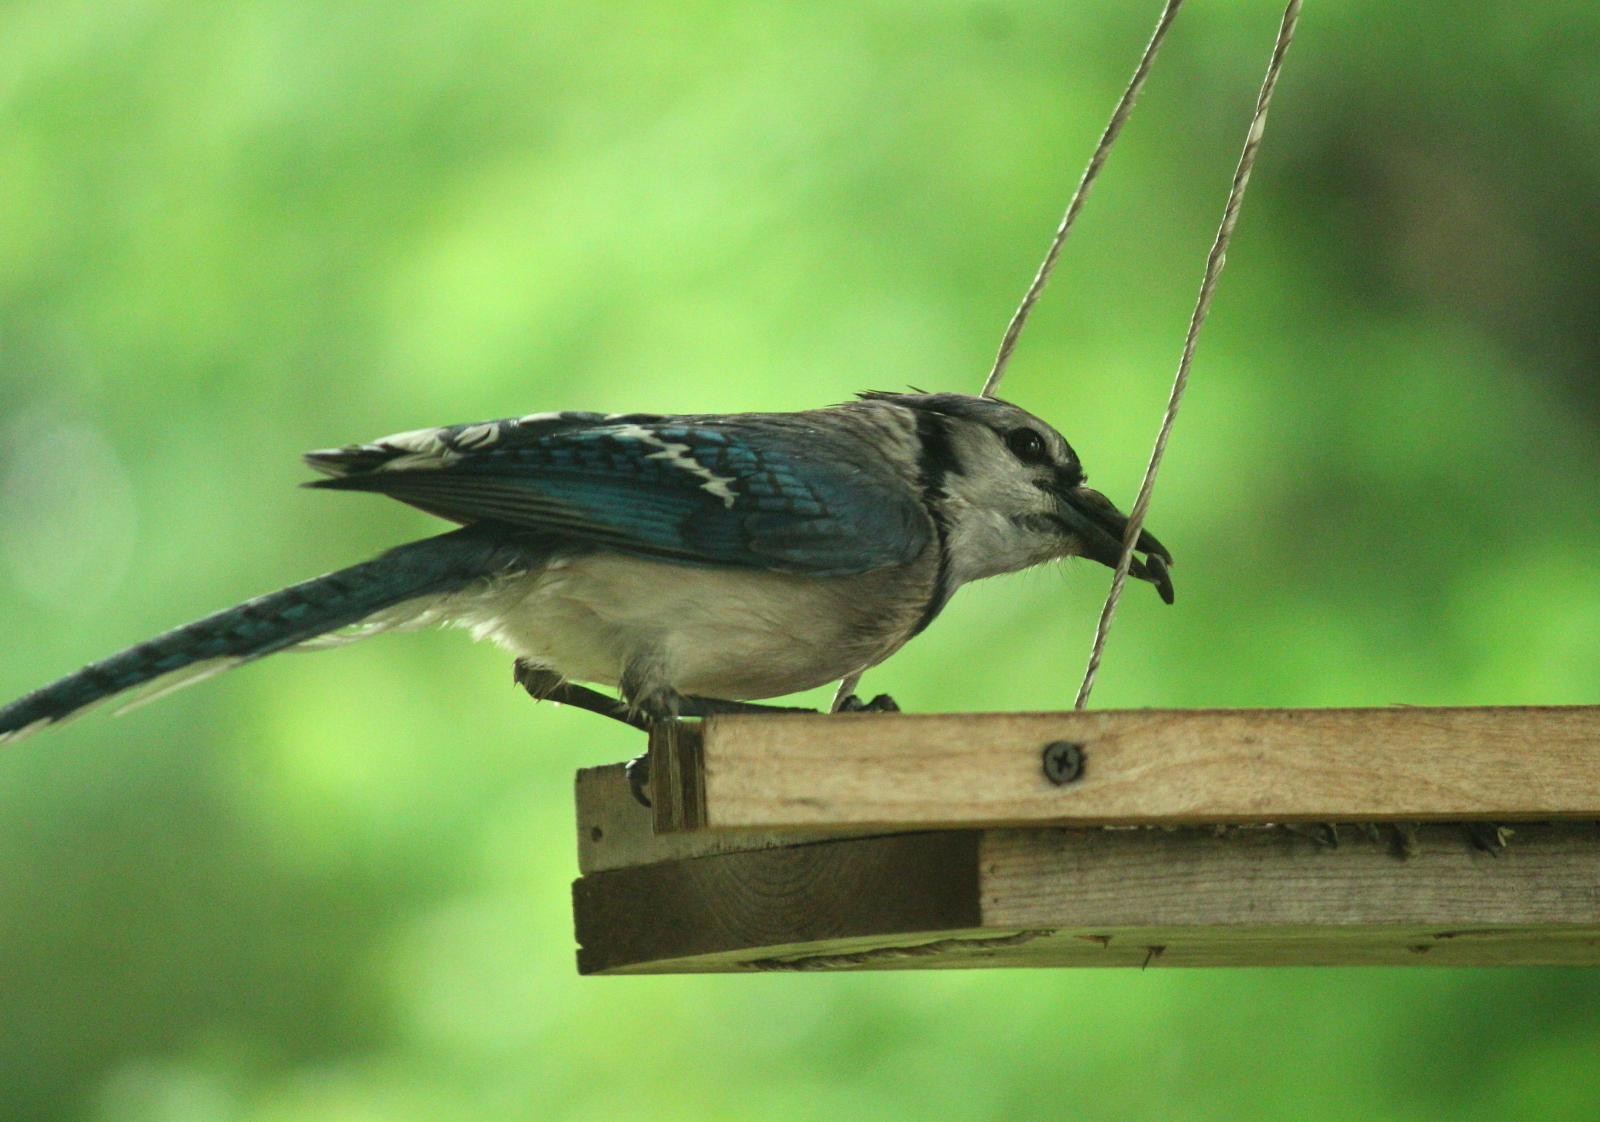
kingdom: Animalia
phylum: Chordata
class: Aves
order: Passeriformes
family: Corvidae
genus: Cyanocitta
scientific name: Cyanocitta cristata
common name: Blue jay
